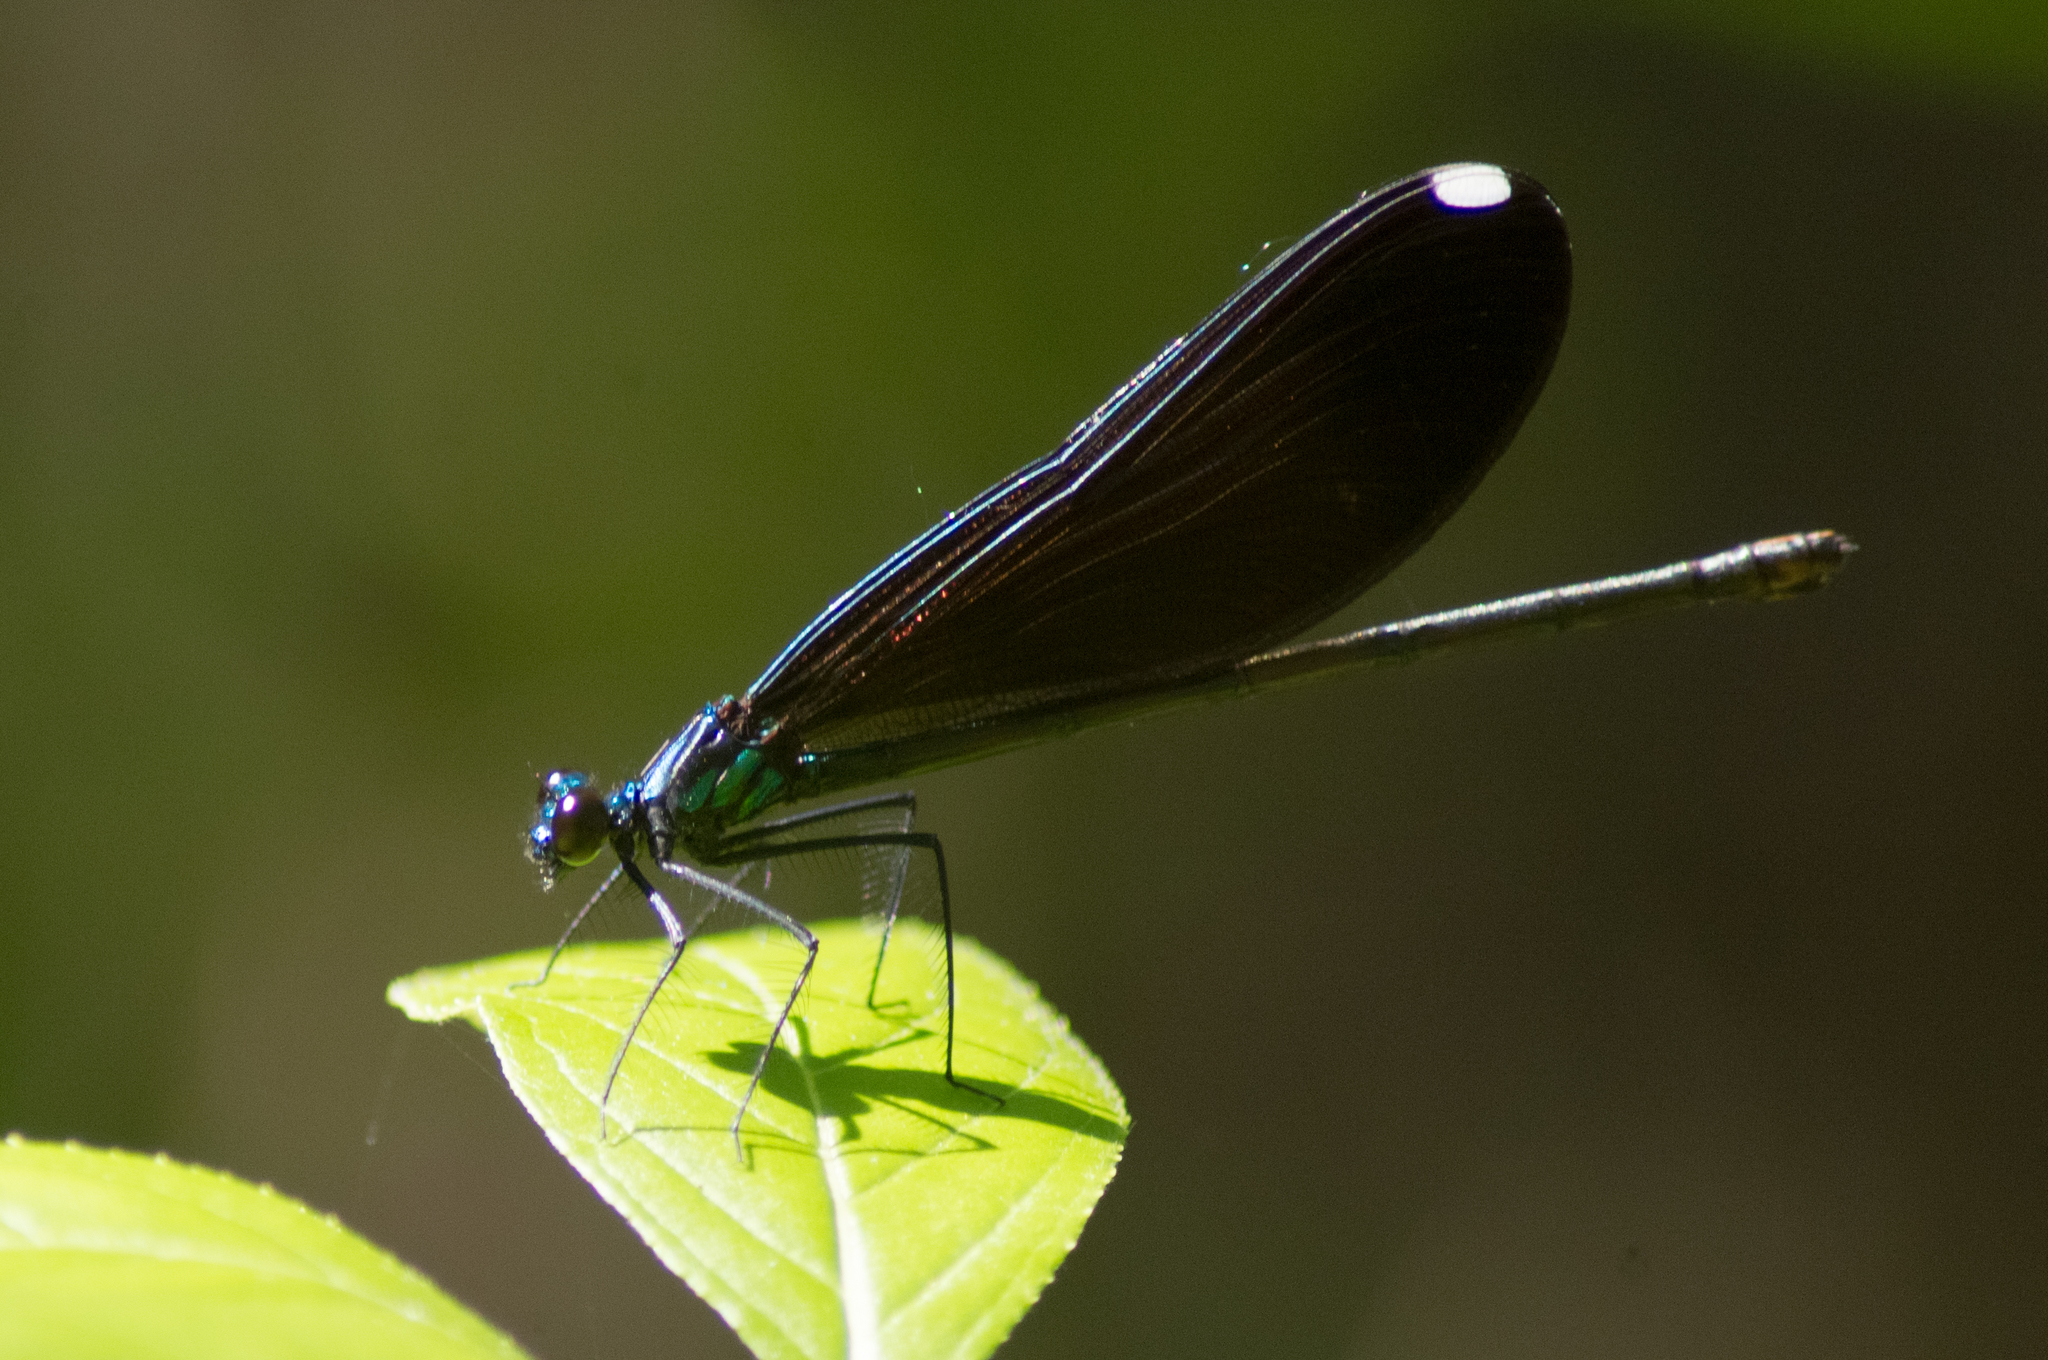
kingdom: Animalia
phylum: Arthropoda
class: Insecta
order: Odonata
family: Calopterygidae
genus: Calopteryx
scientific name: Calopteryx maculata
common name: Ebony jewelwing
